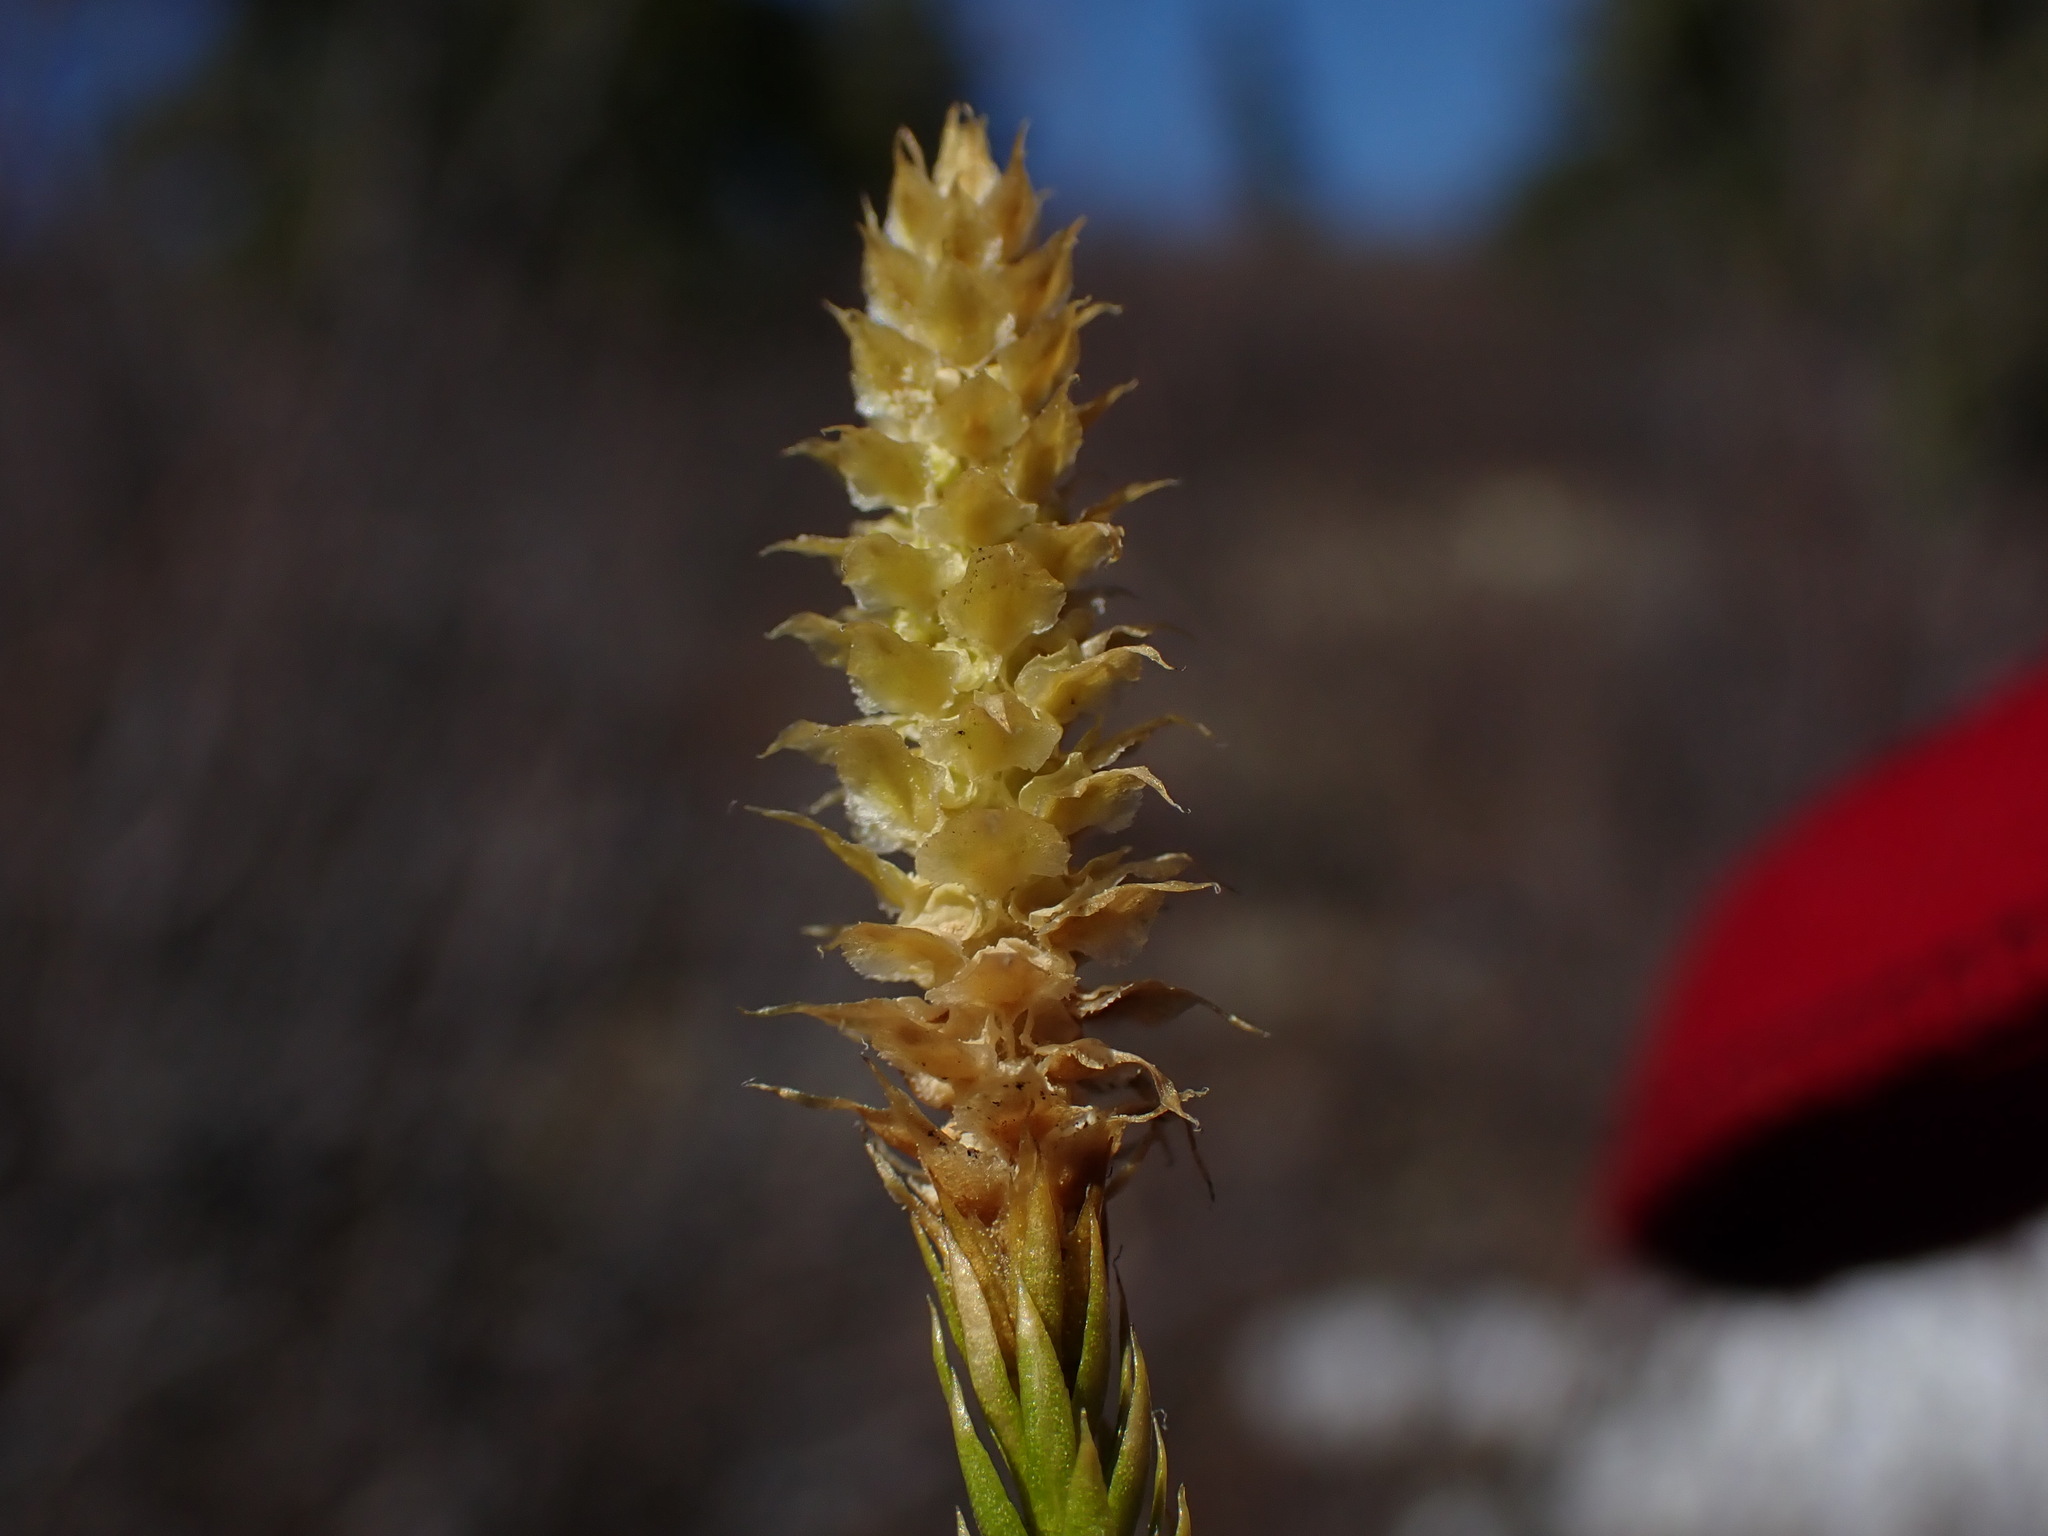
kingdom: Plantae
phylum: Tracheophyta
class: Lycopodiopsida
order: Lycopodiales
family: Lycopodiaceae
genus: Spinulum
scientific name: Spinulum annotinum
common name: Interrupted club-moss
